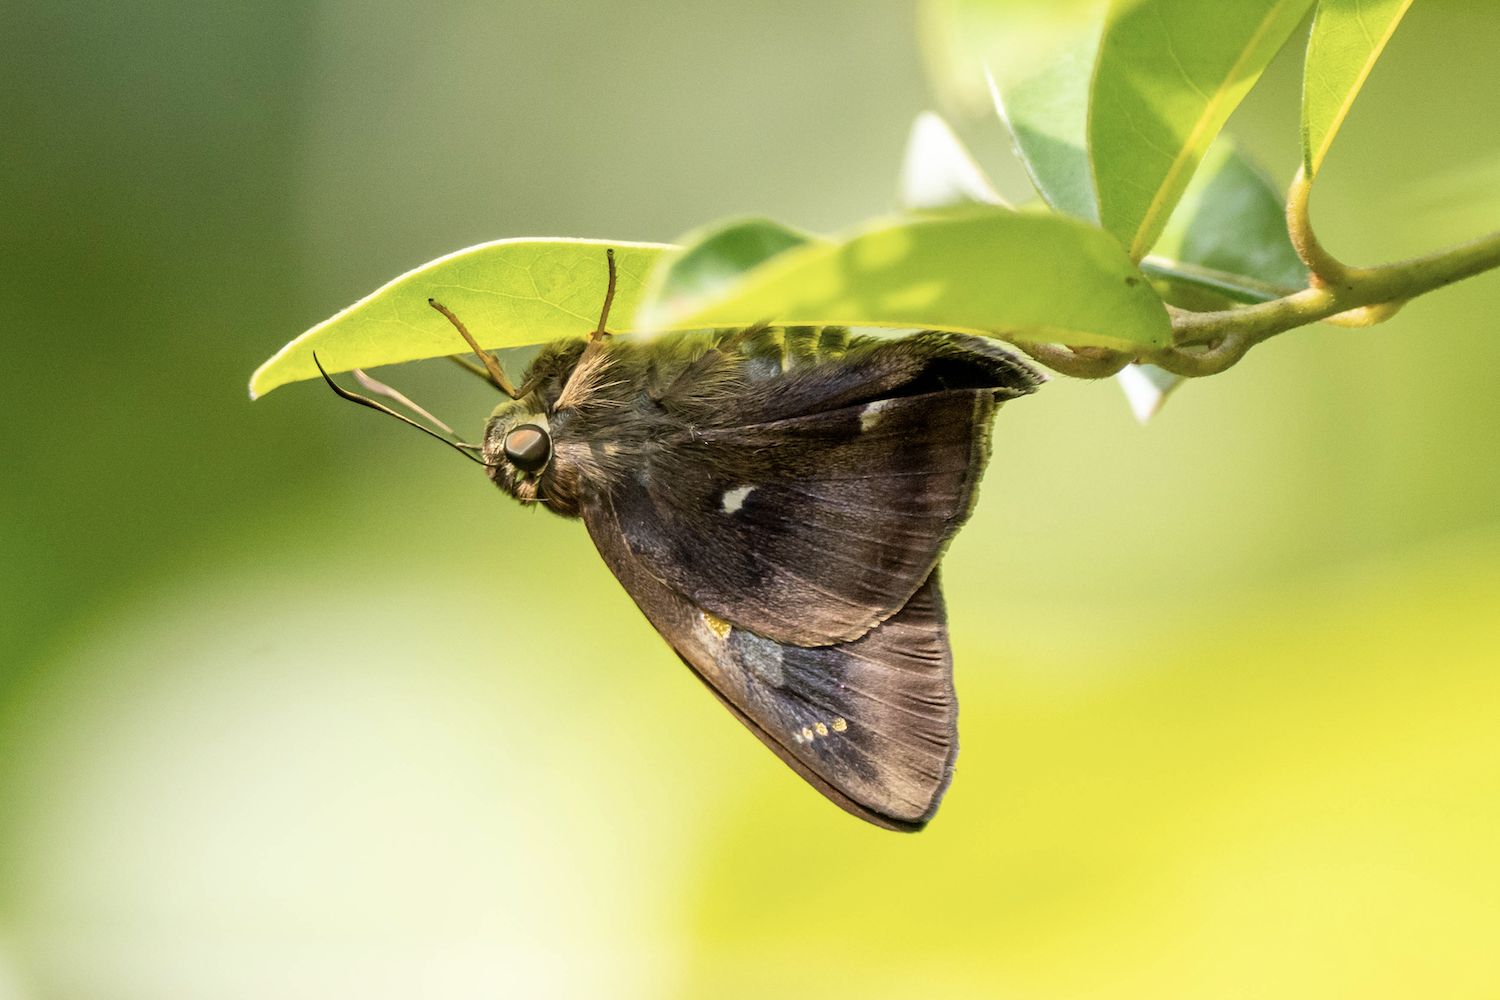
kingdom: Animalia
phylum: Arthropoda
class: Insecta
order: Lepidoptera
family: Hesperiidae
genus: Hasora
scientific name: Hasora badra
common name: Common awl
